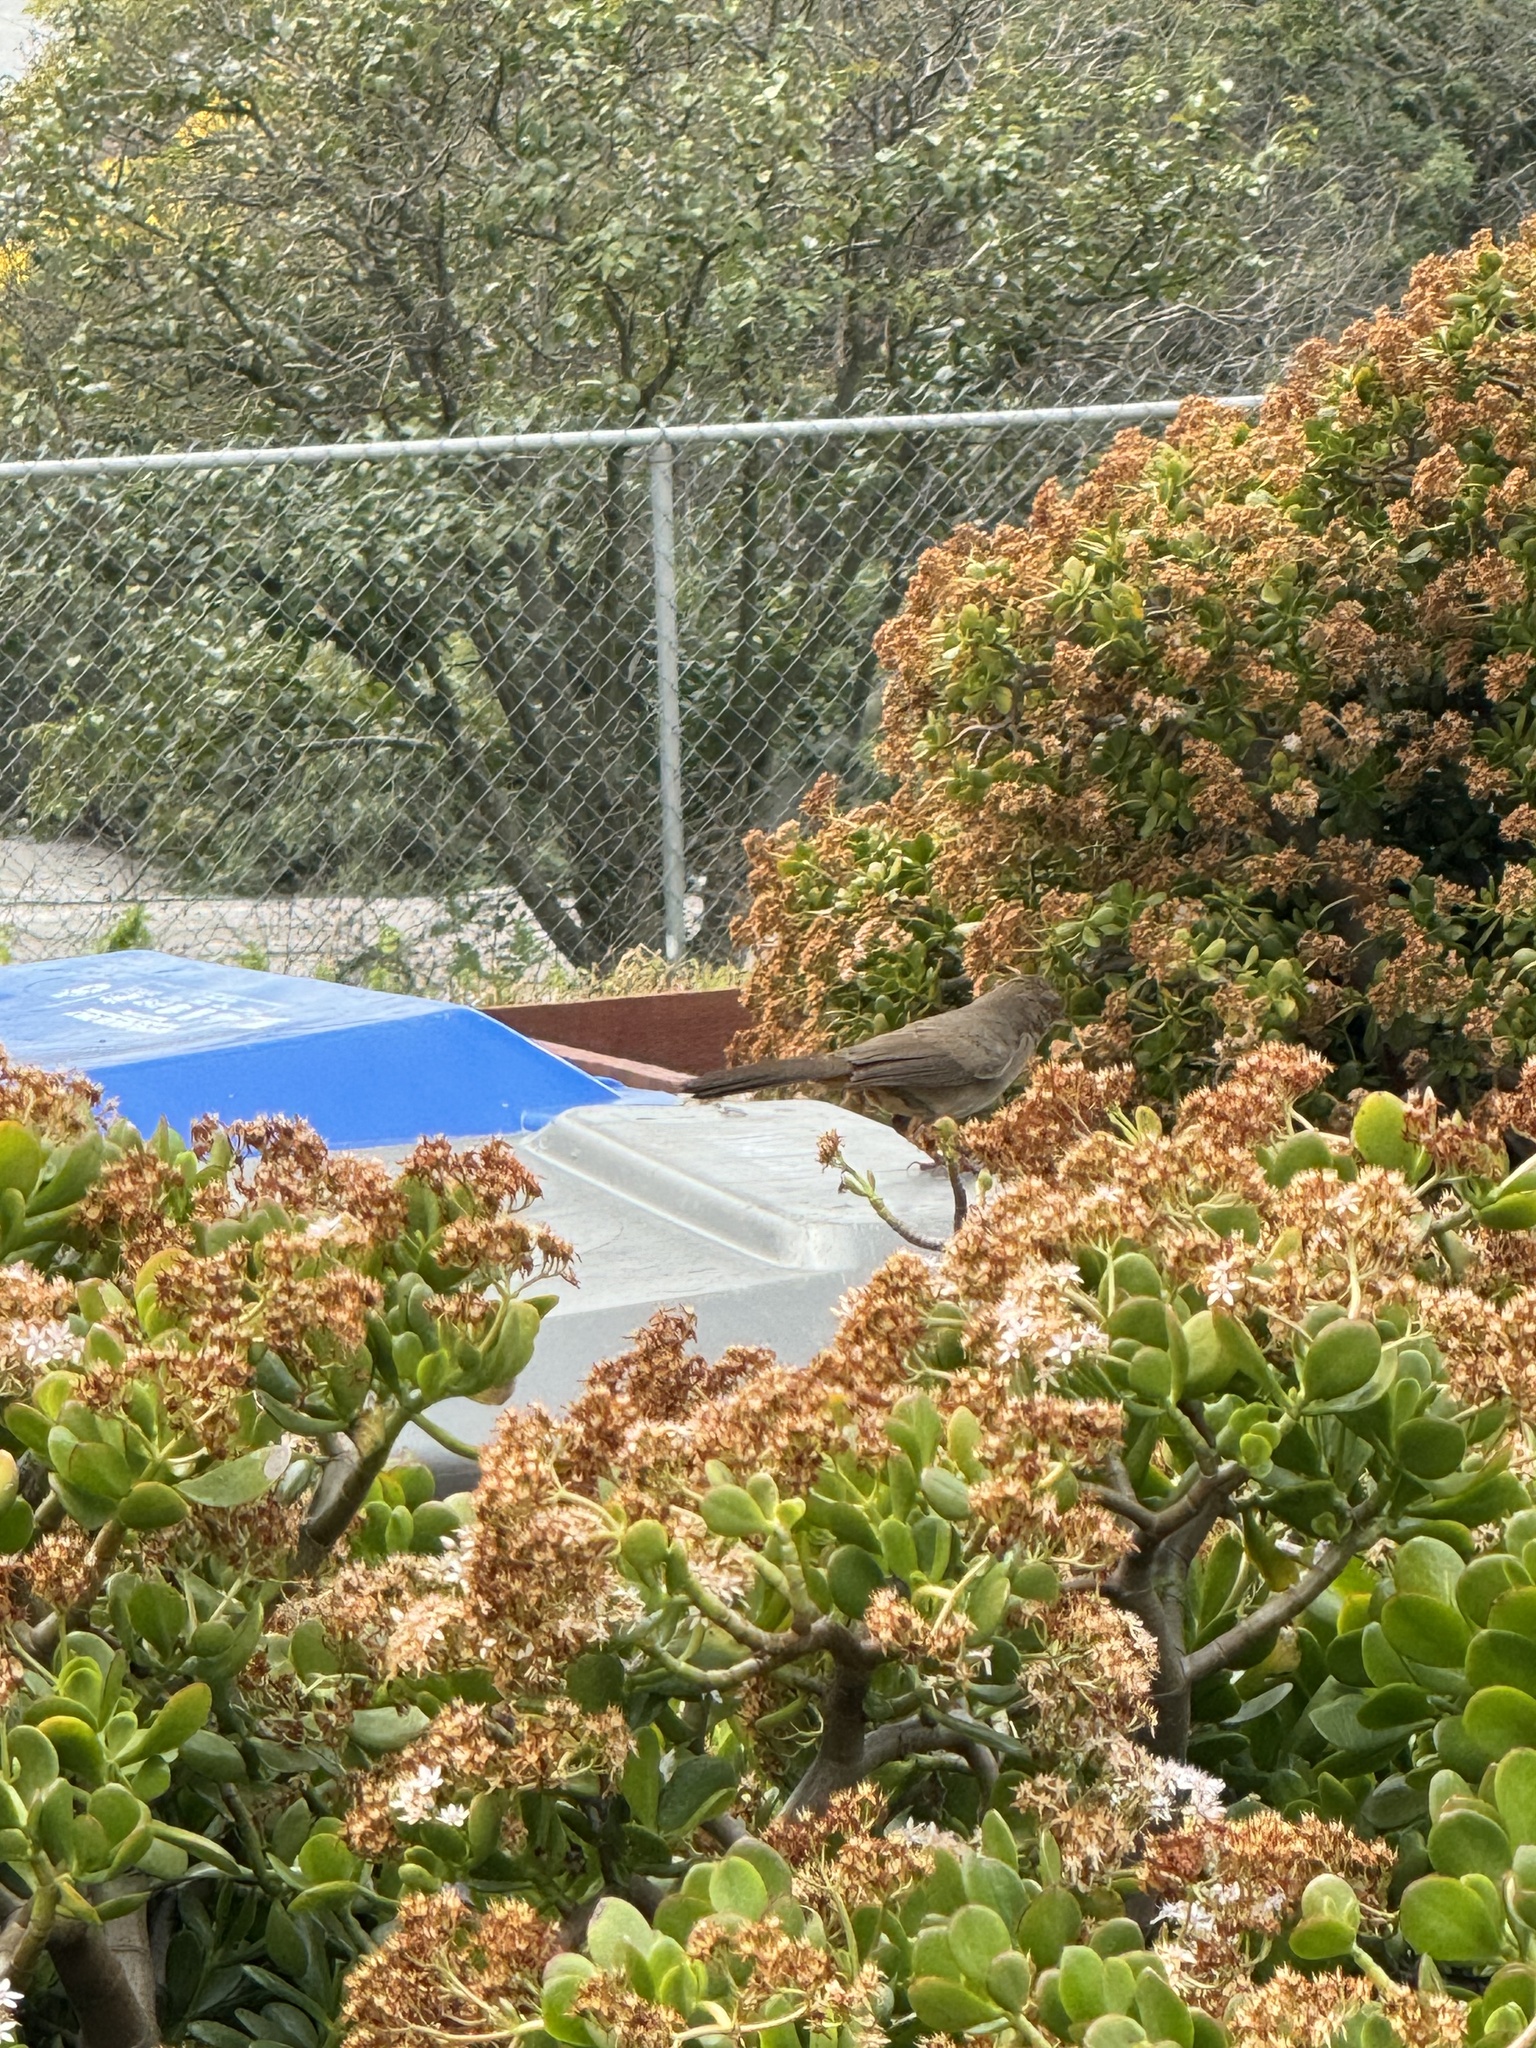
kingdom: Animalia
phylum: Chordata
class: Aves
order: Passeriformes
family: Passerellidae
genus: Melozone
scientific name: Melozone crissalis
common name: California towhee
